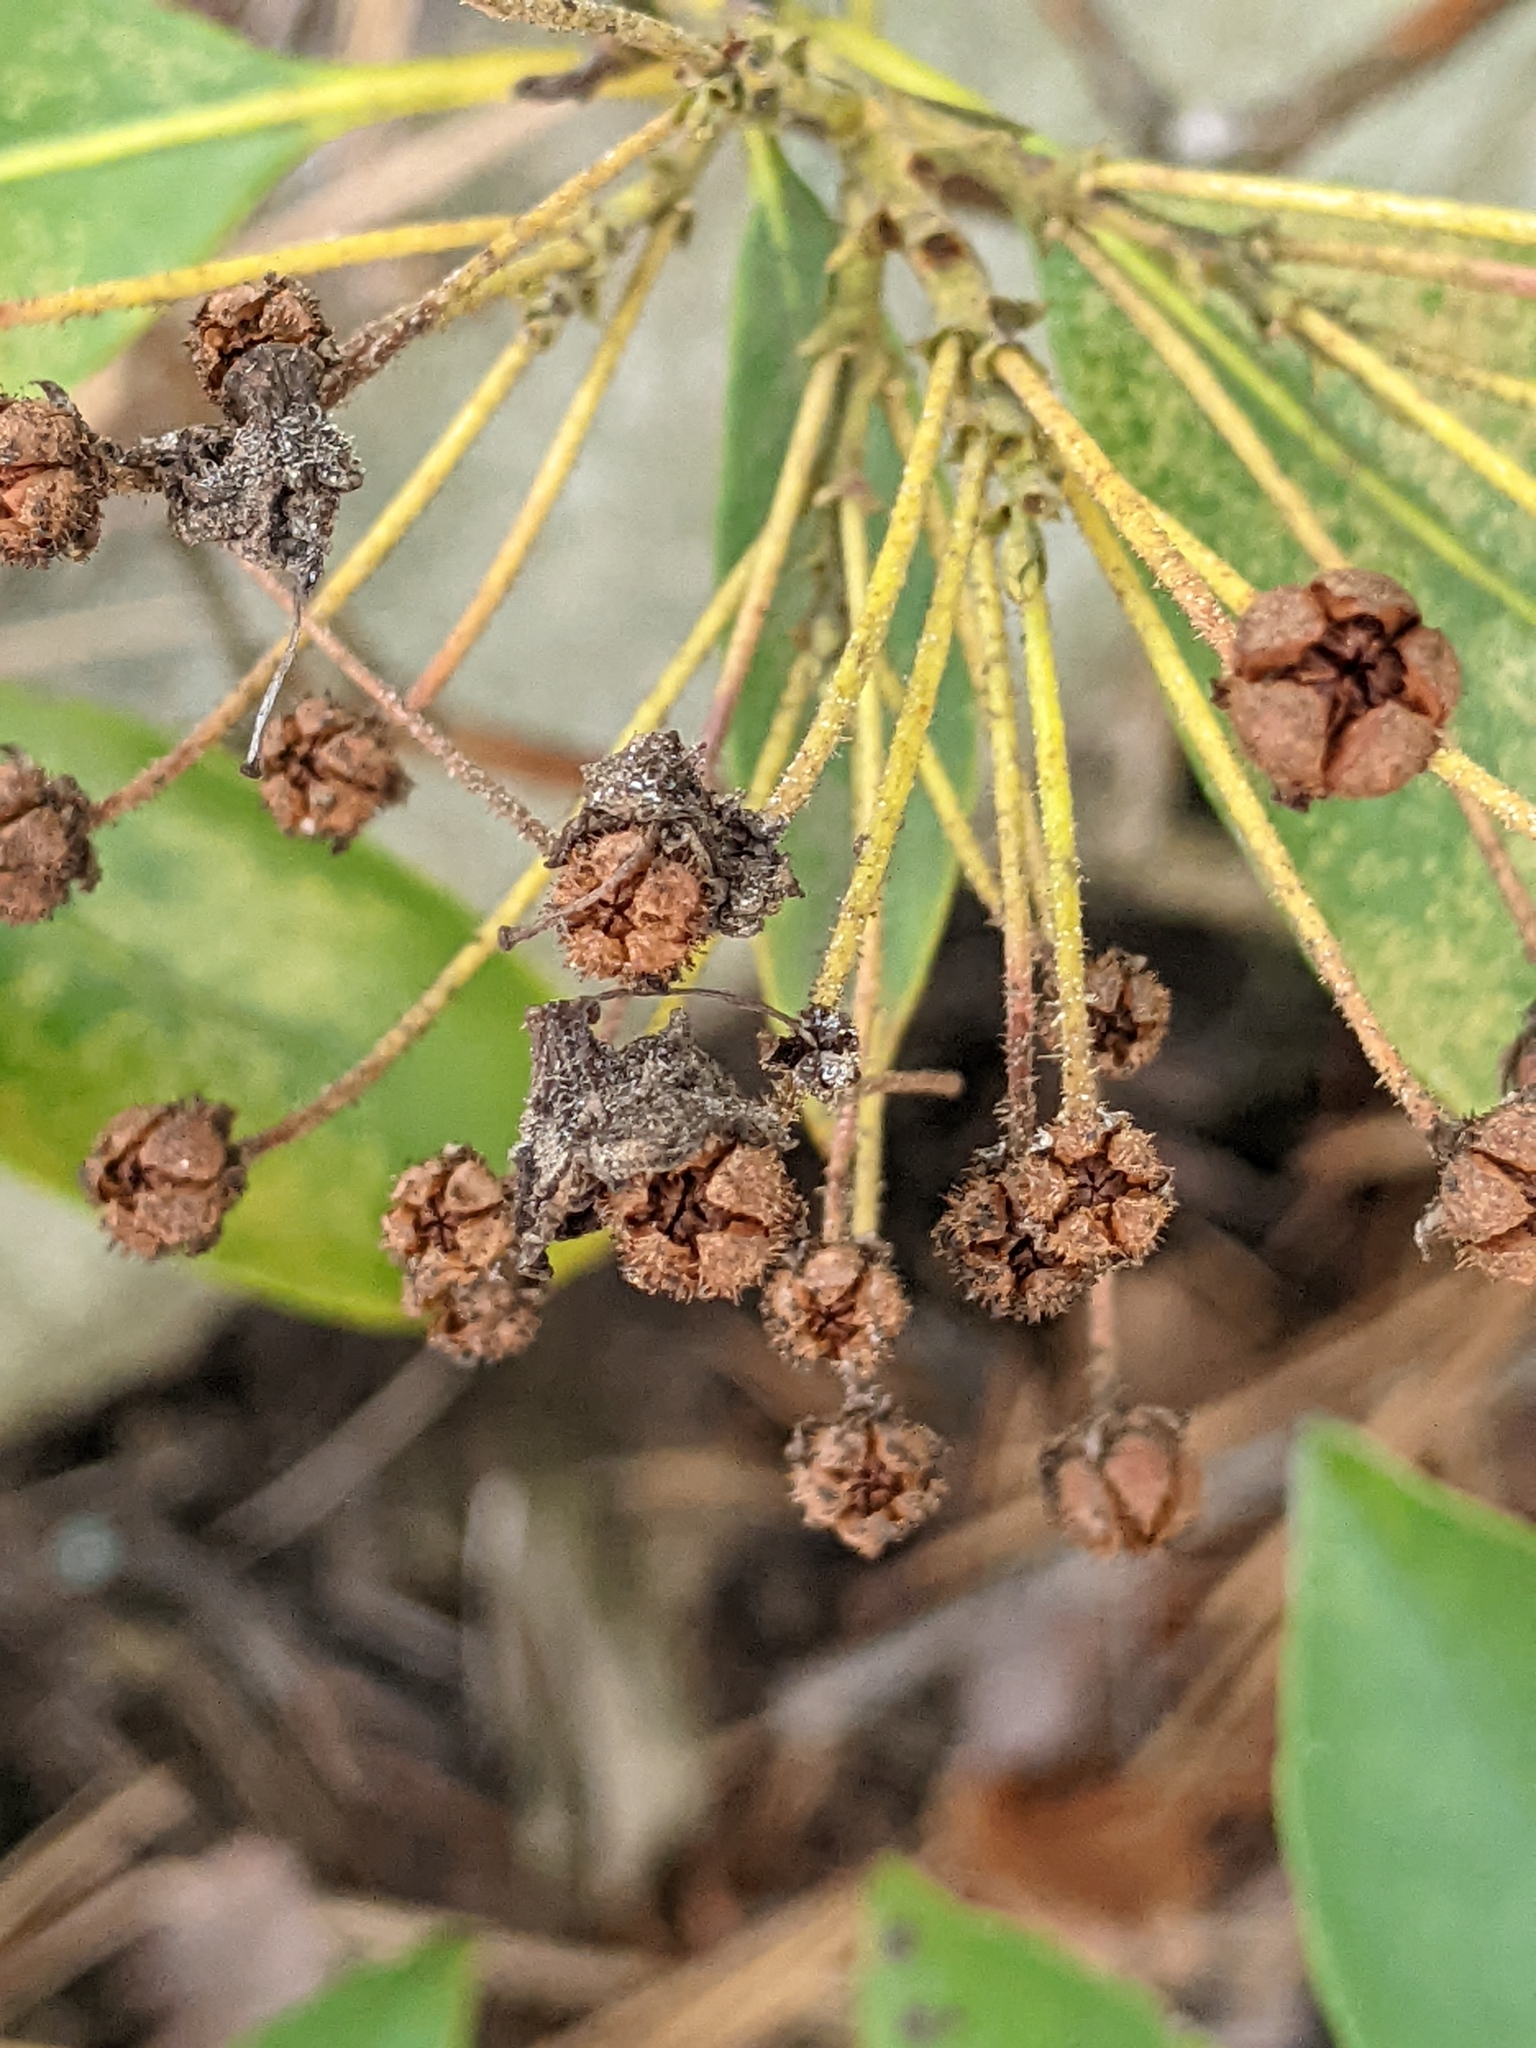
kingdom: Plantae
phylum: Tracheophyta
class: Magnoliopsida
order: Ericales
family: Ericaceae
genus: Kalmia
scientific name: Kalmia latifolia
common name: Mountain-laurel
